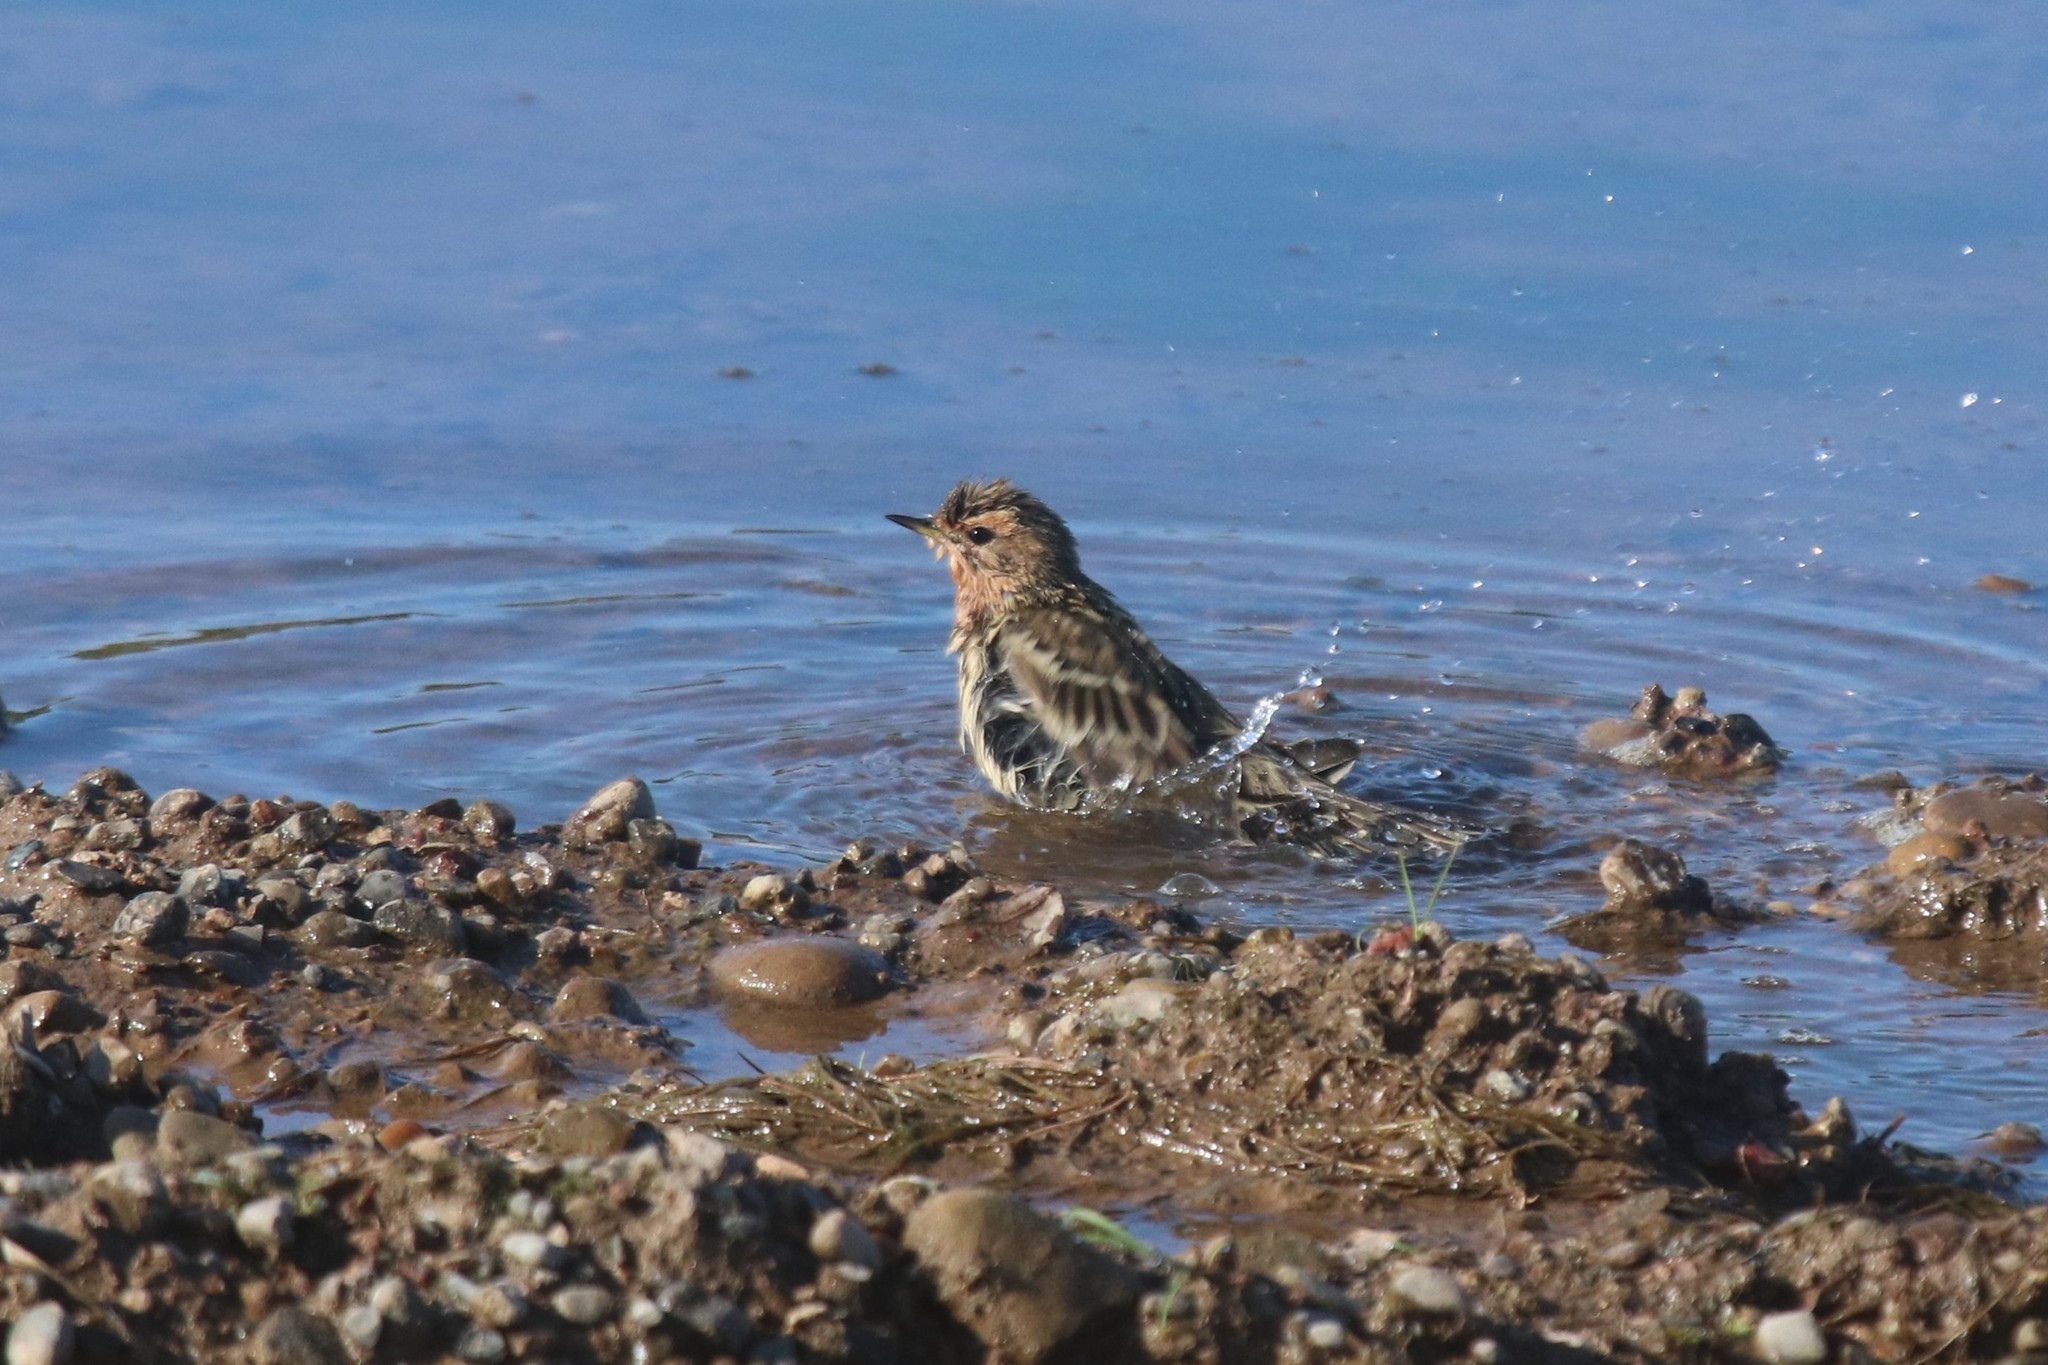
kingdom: Animalia
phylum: Chordata
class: Aves
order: Passeriformes
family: Motacillidae
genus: Anthus
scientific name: Anthus cervinus
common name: Red-throated pipit
